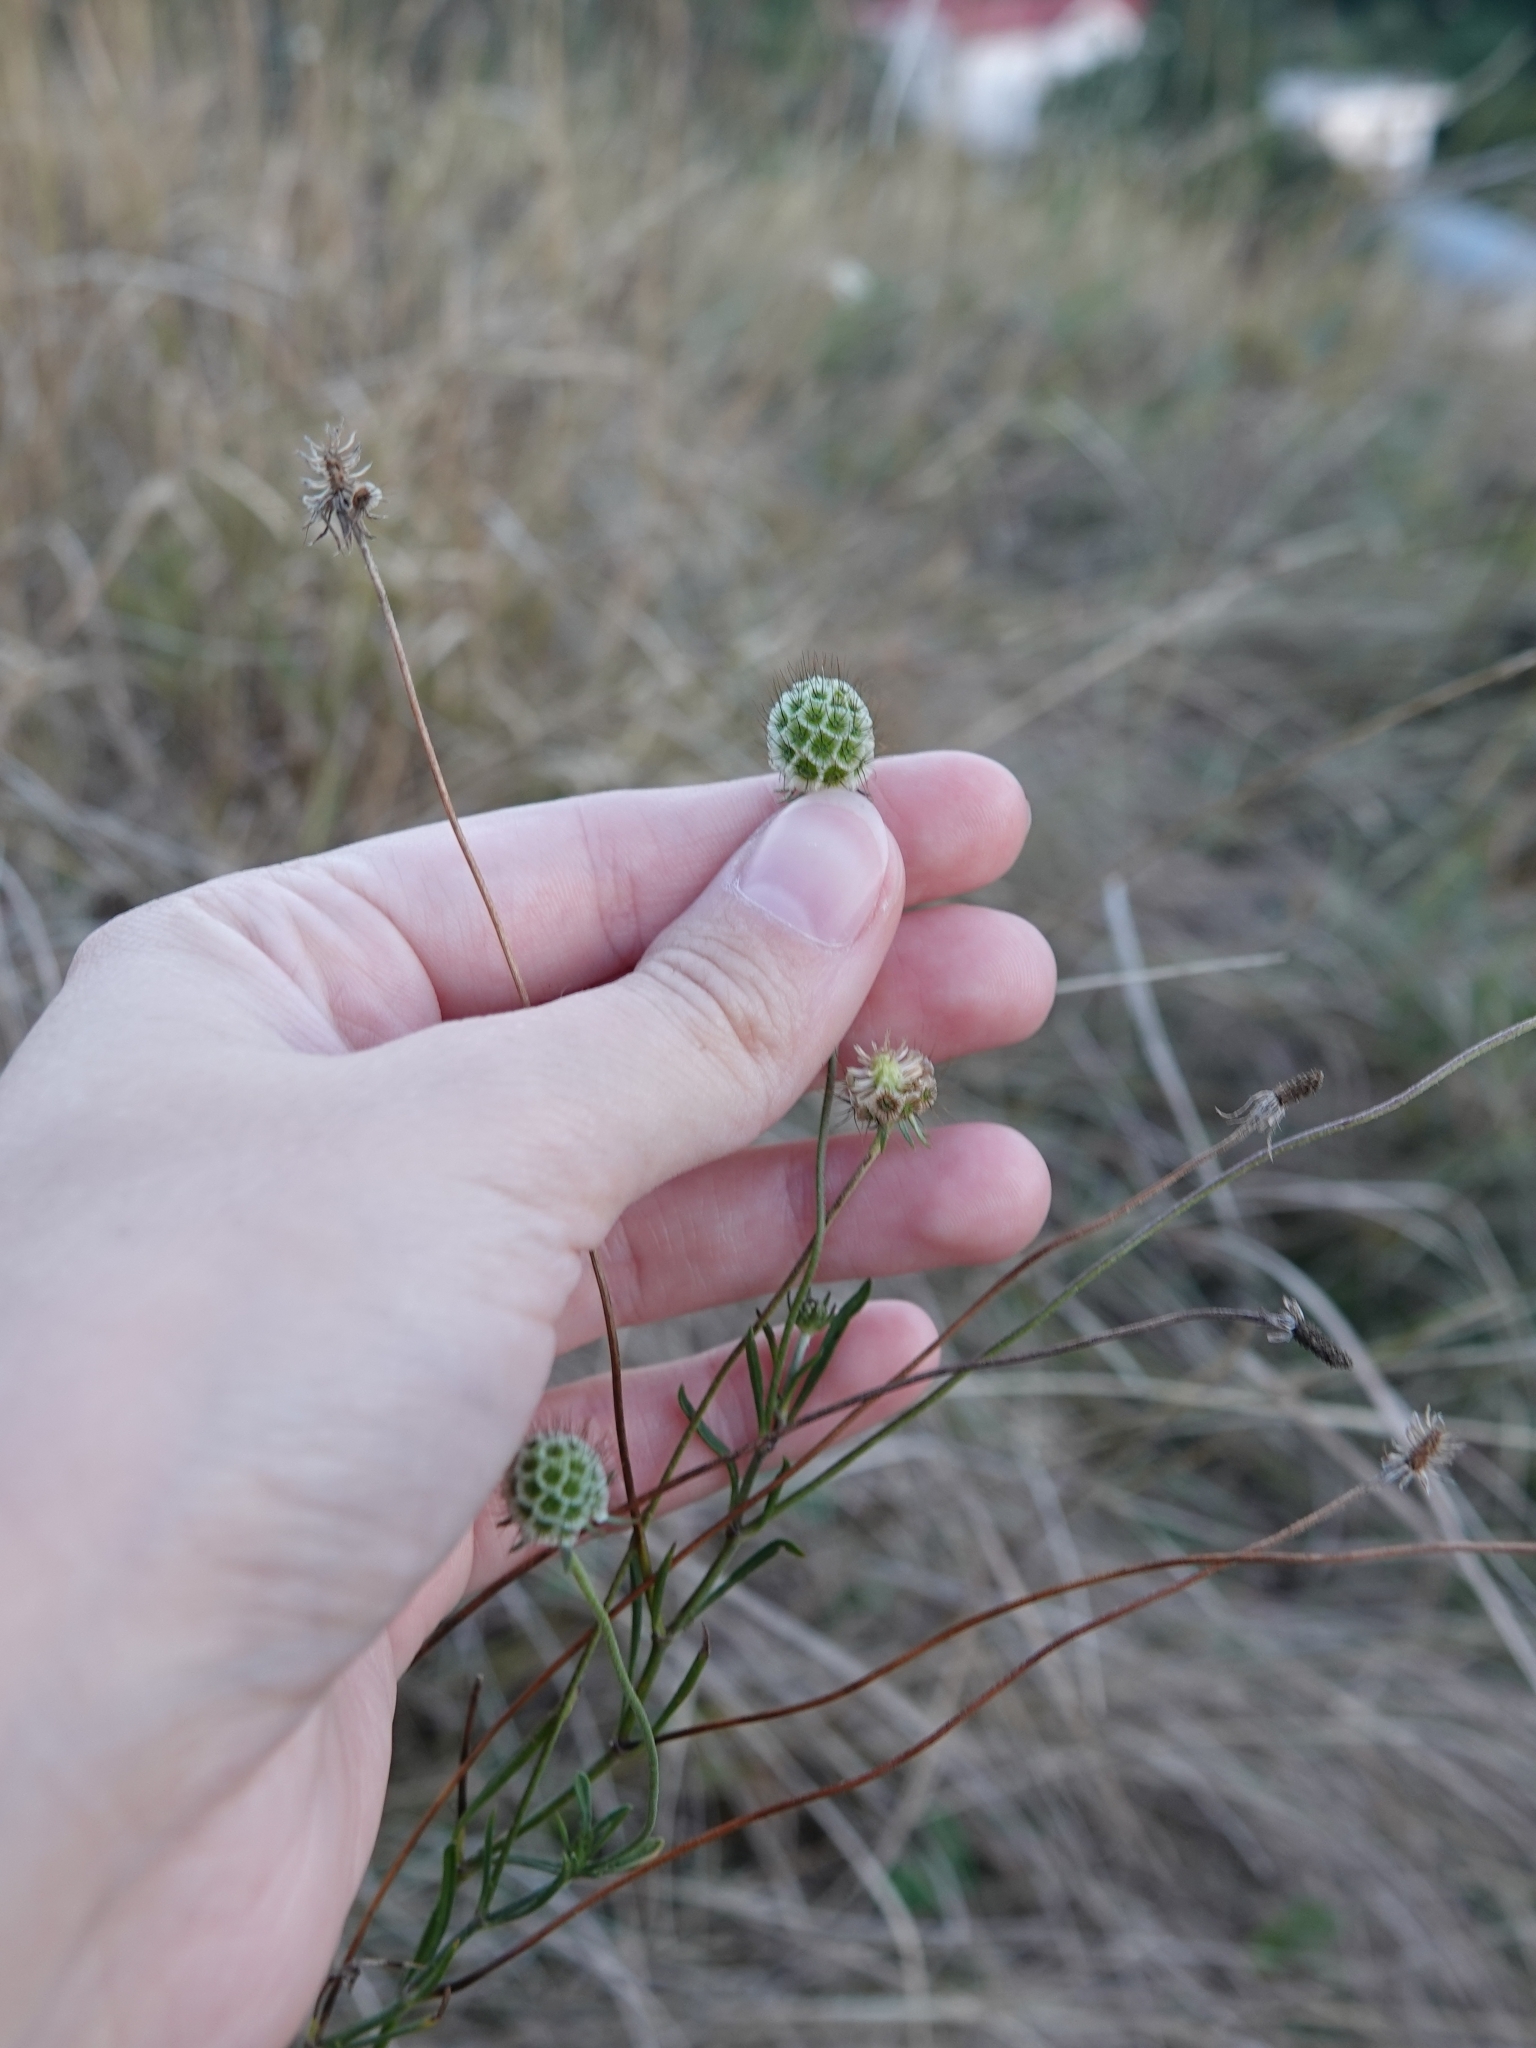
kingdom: Plantae
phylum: Tracheophyta
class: Magnoliopsida
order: Dipsacales
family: Caprifoliaceae
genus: Scabiosa
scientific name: Scabiosa ochroleuca
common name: Cream pincushions
